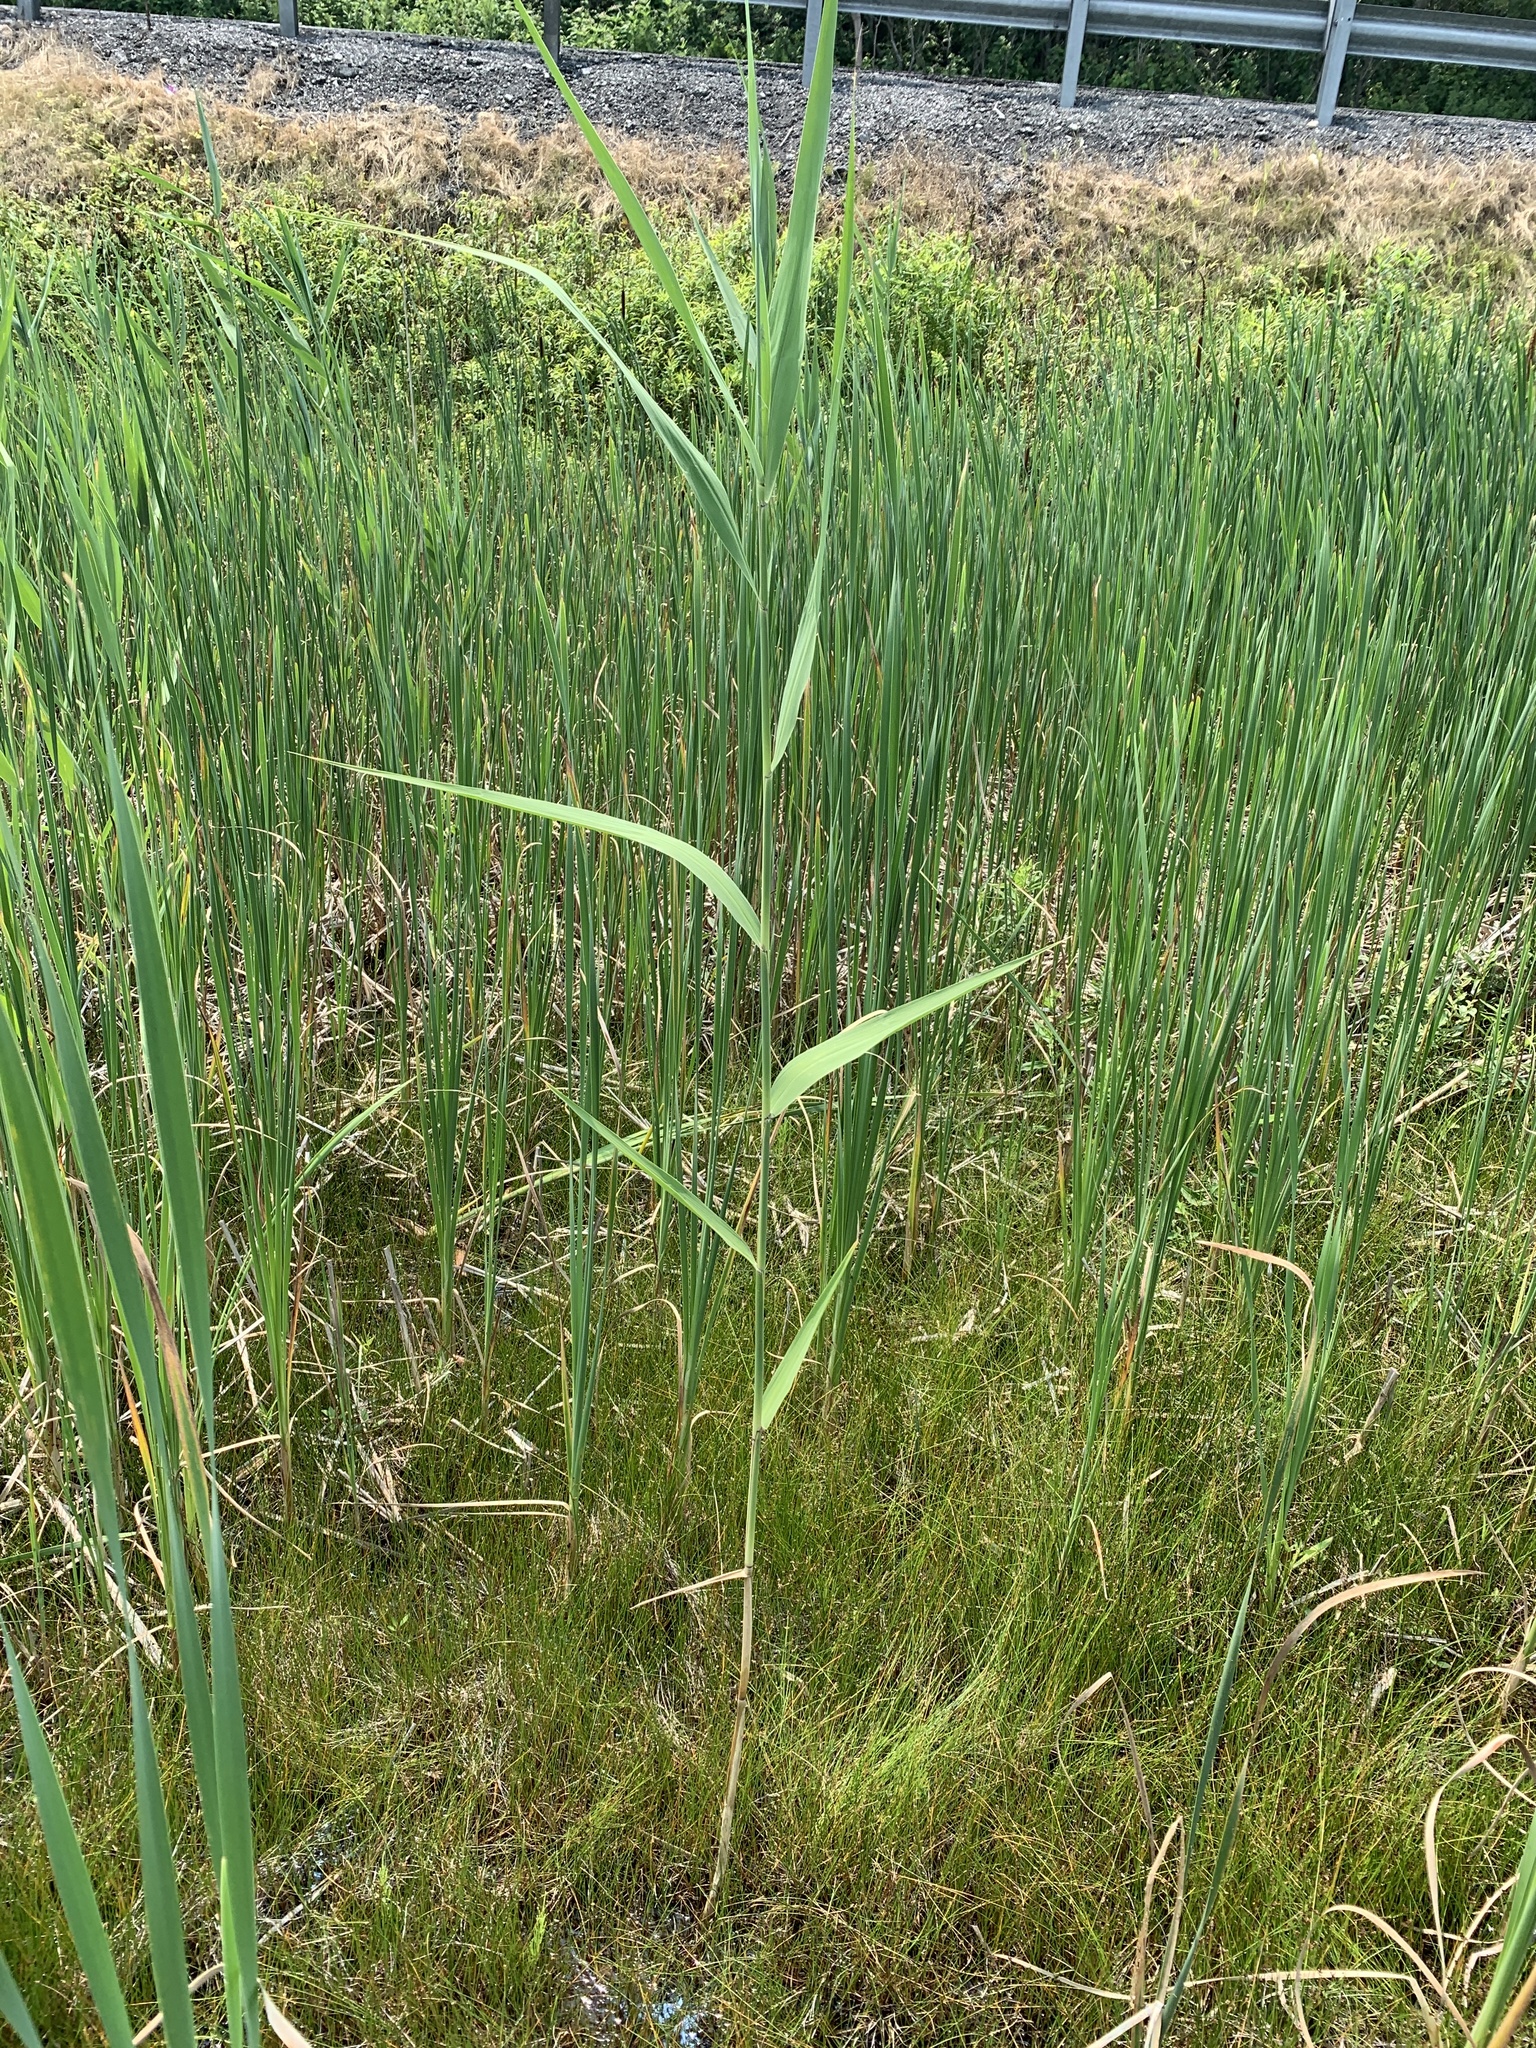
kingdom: Plantae
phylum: Tracheophyta
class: Liliopsida
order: Poales
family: Poaceae
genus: Phragmites
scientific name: Phragmites australis
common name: Common reed
